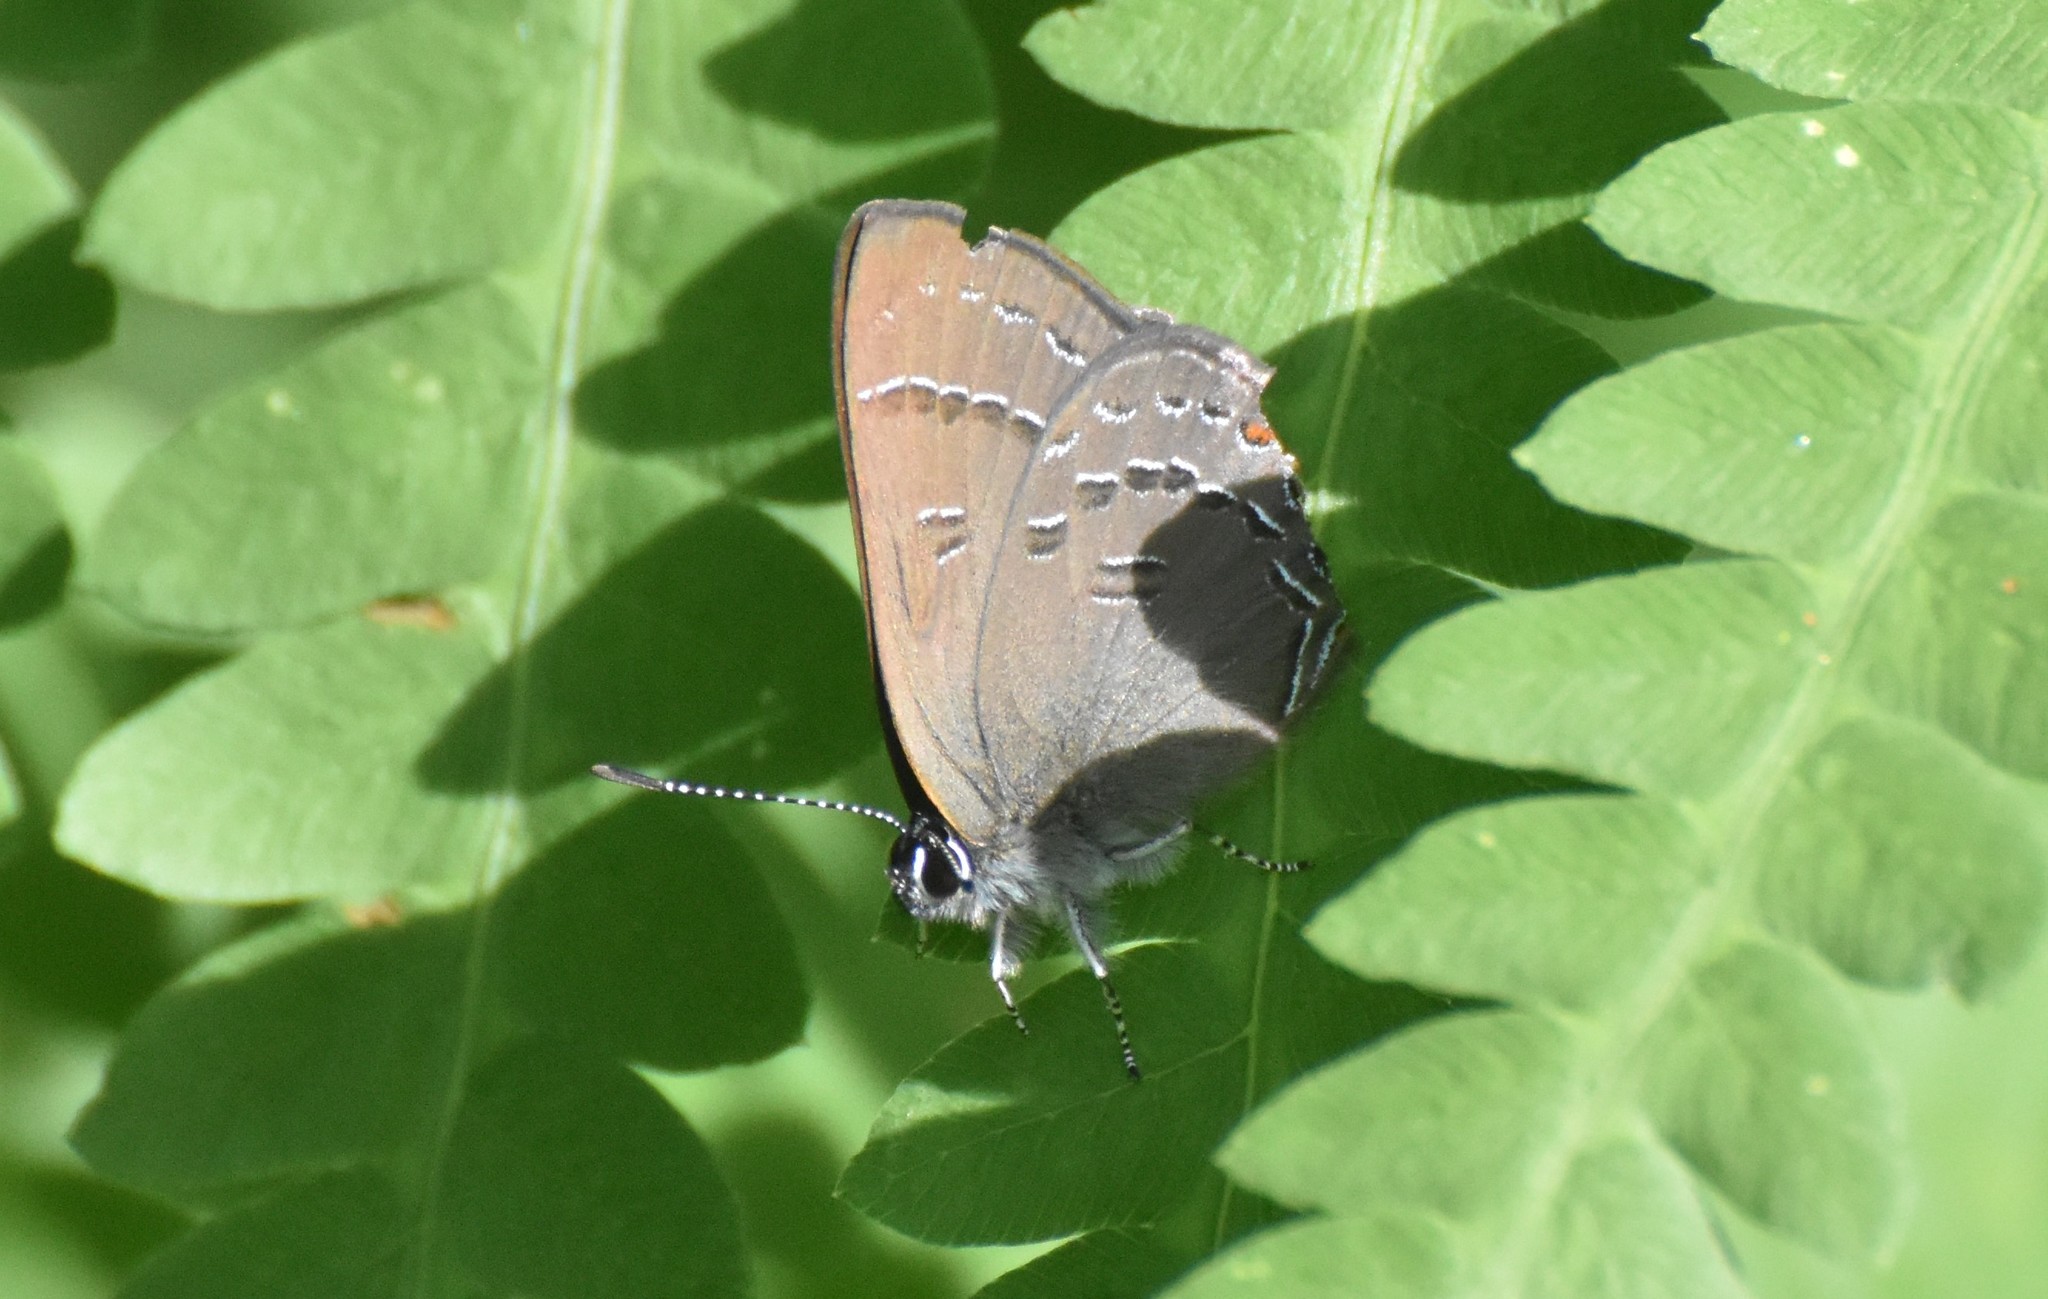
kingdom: Animalia
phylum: Arthropoda
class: Insecta
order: Lepidoptera
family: Lycaenidae
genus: Satyrium
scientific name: Satyrium calanus
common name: Banded hairstreak
